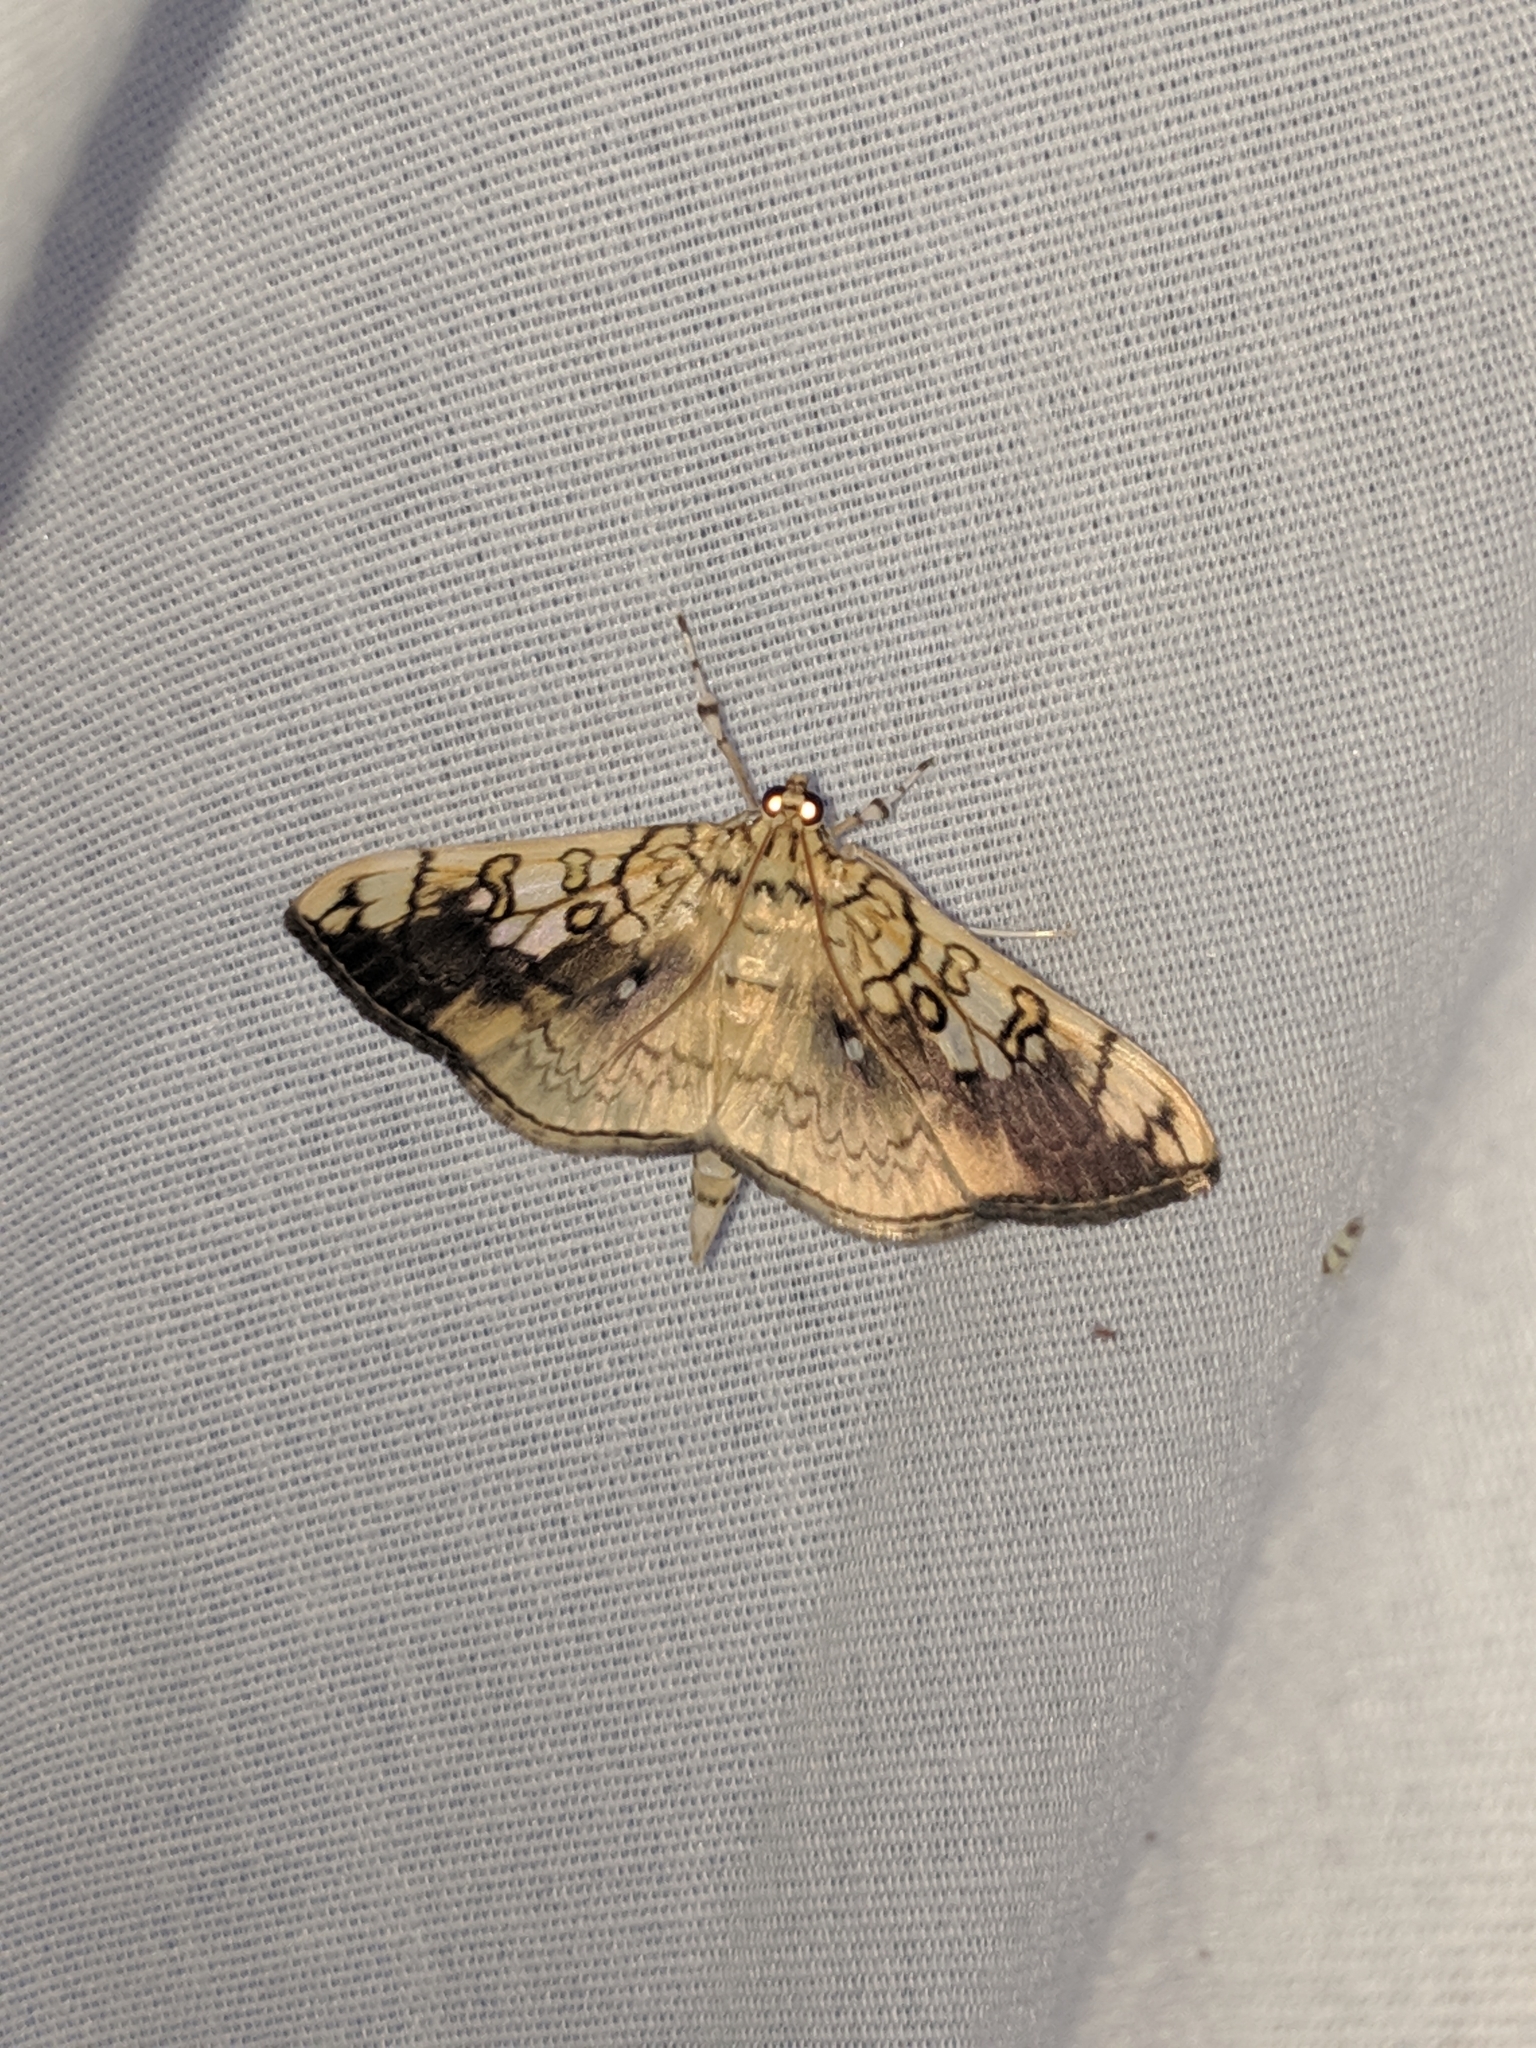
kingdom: Animalia
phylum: Arthropoda
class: Insecta
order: Lepidoptera
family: Crambidae
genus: Pantographa
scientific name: Pantographa limata
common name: Basswood leafroller moth
